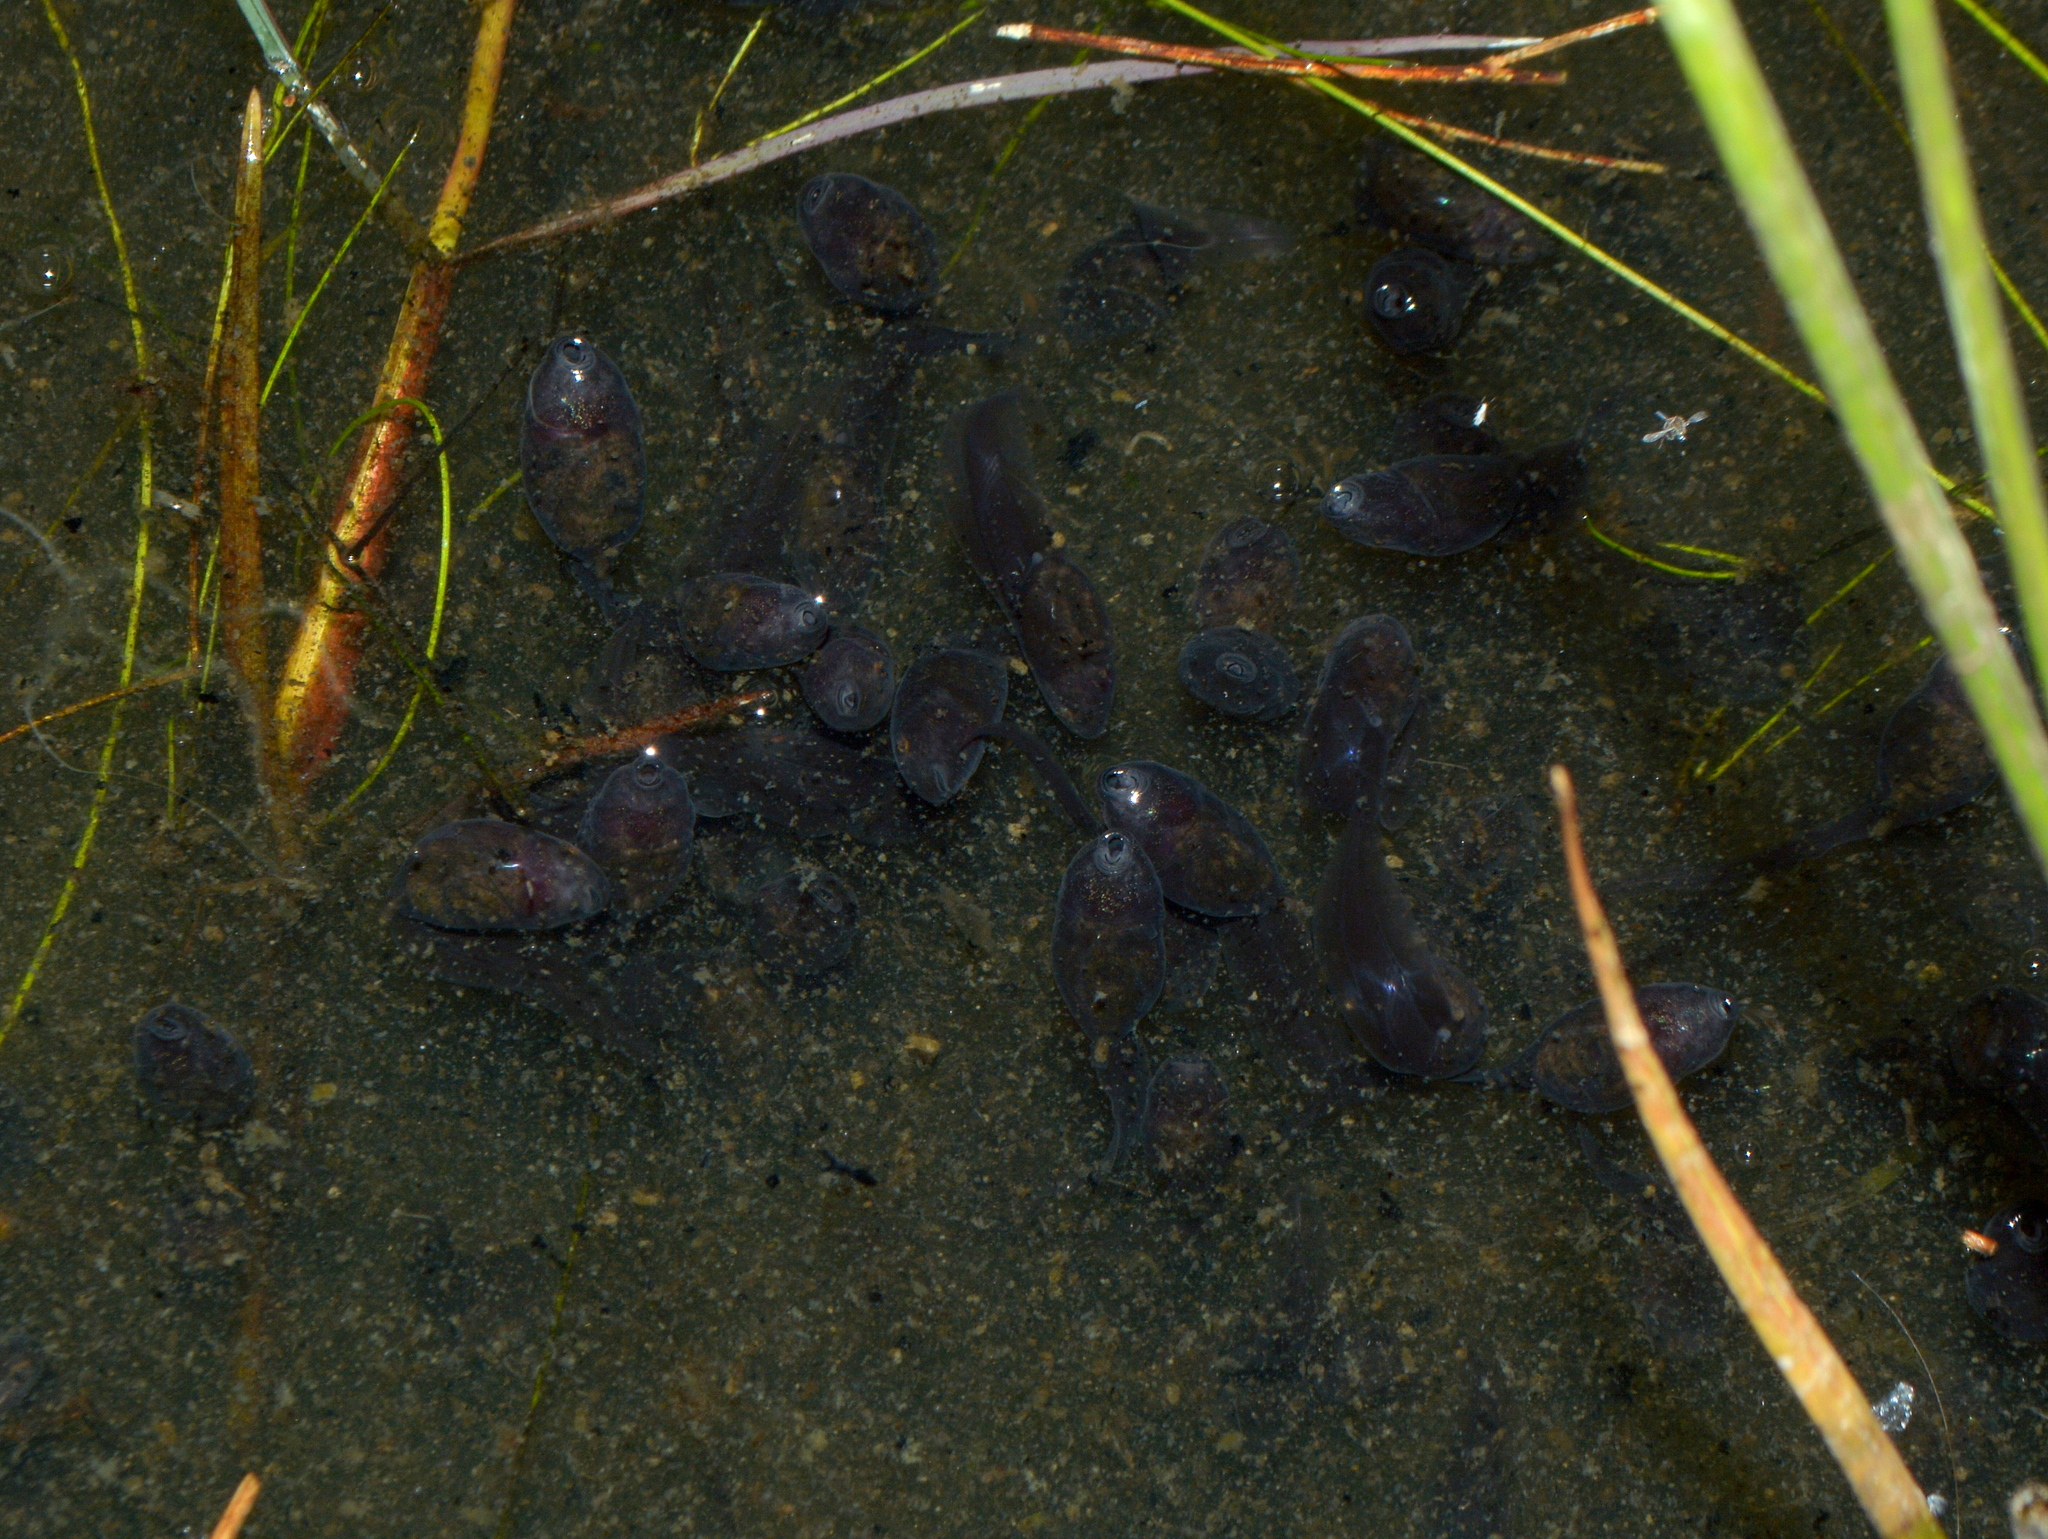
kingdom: Animalia
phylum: Chordata
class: Amphibia
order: Anura
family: Leptodactylidae
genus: Leptodactylus
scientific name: Leptodactylus luctator
